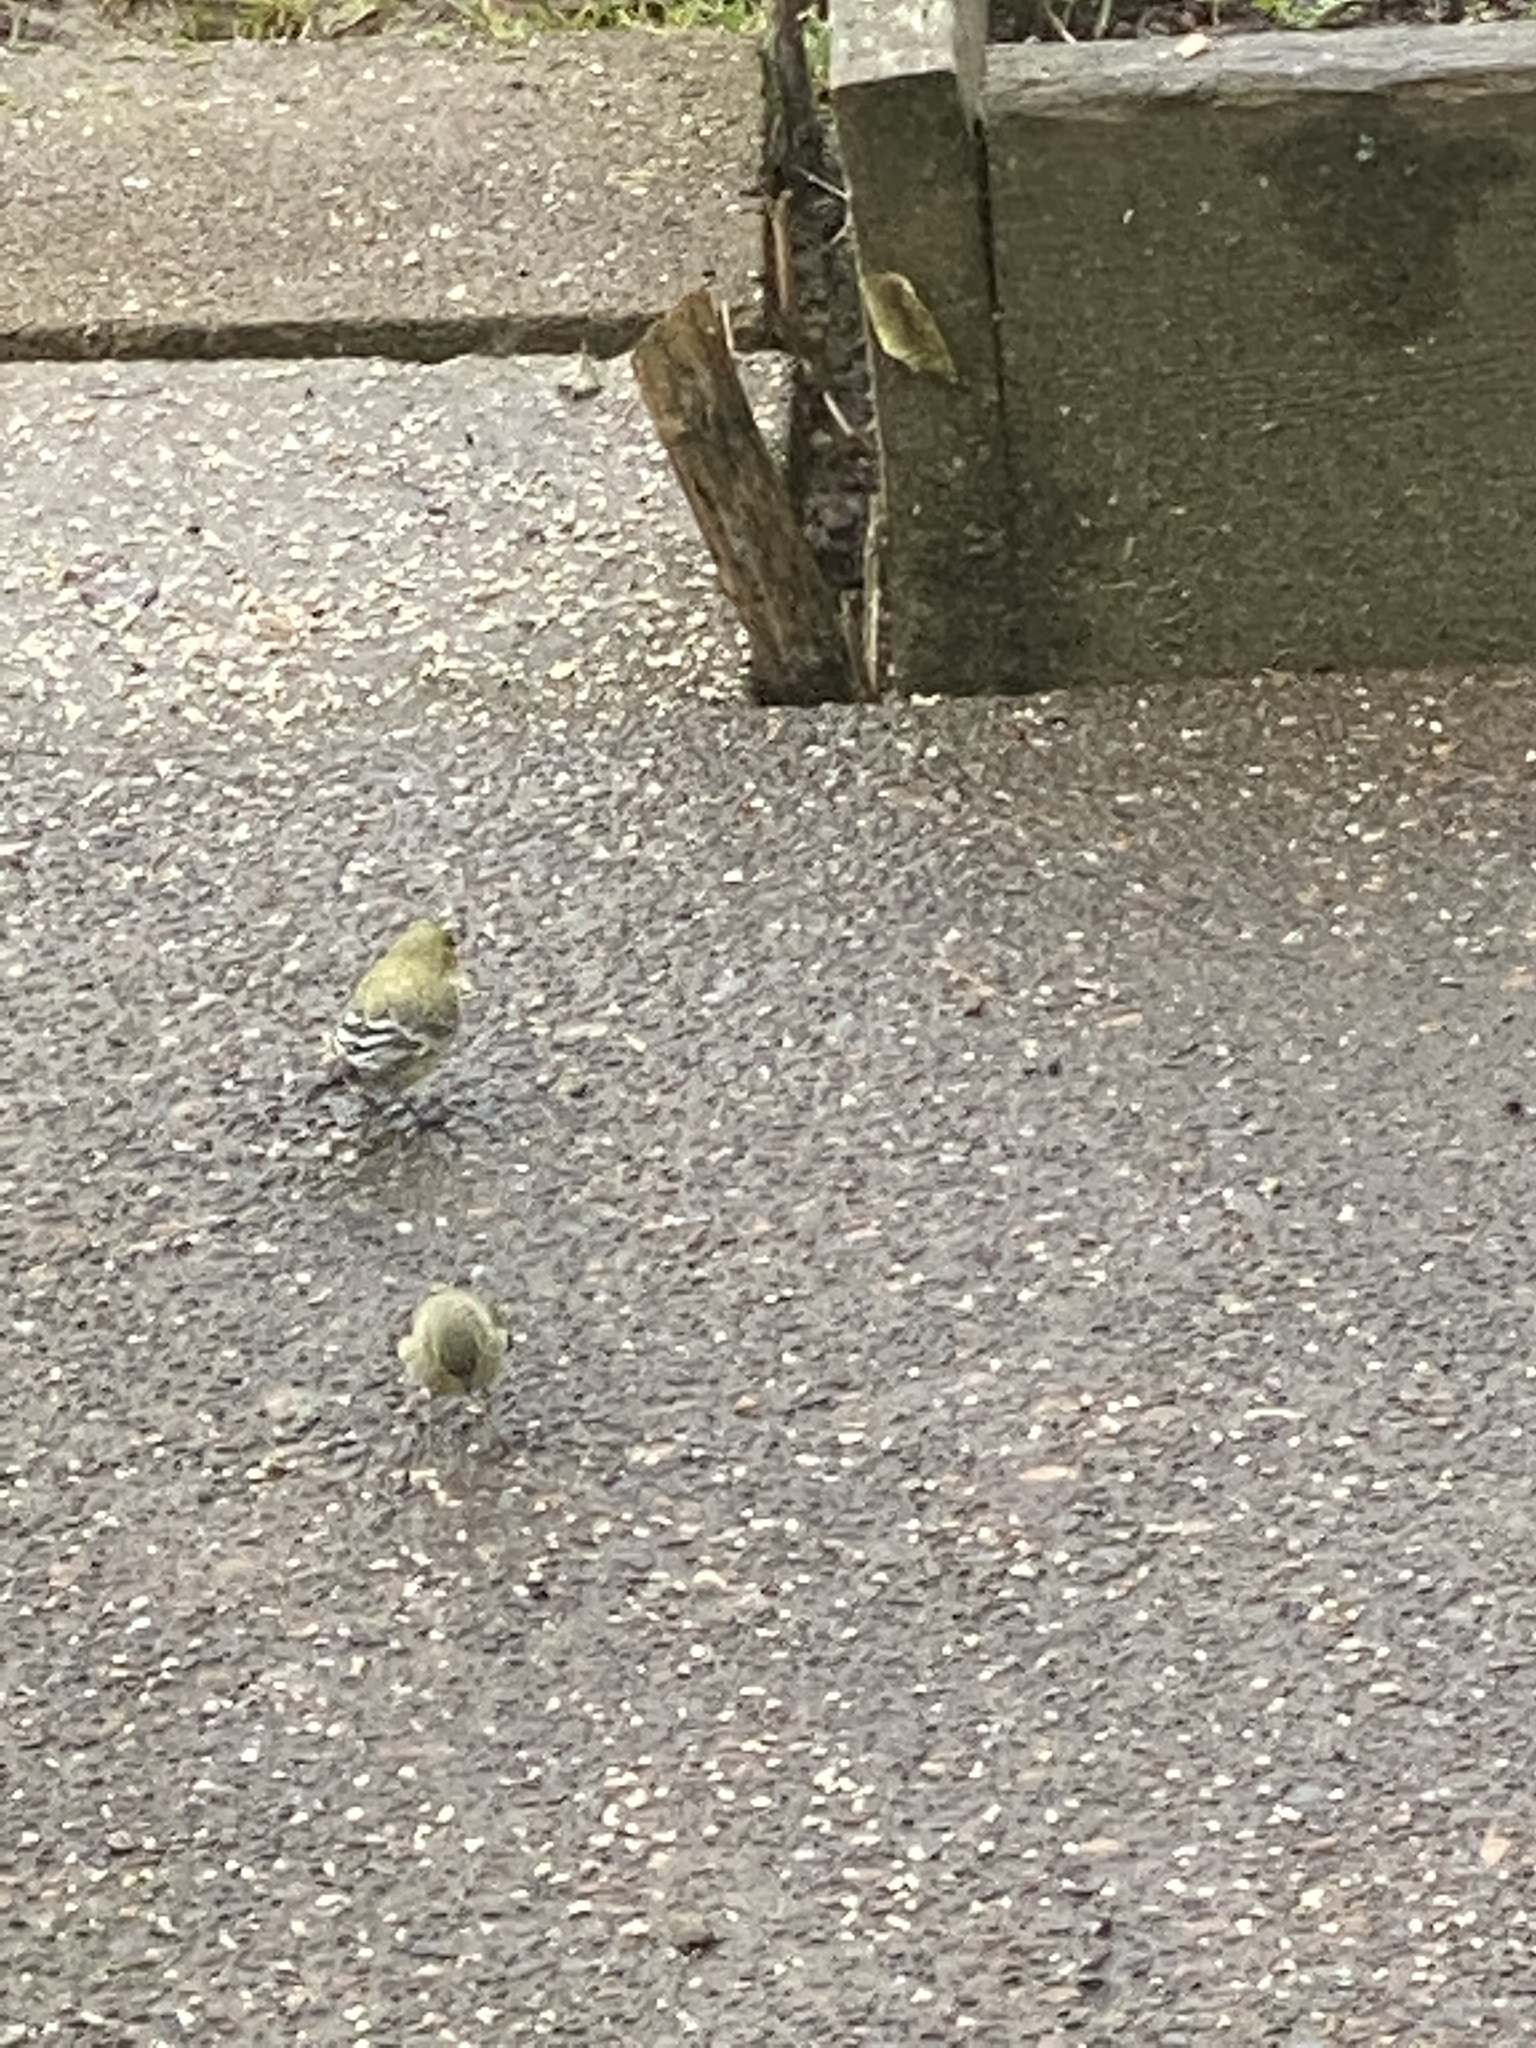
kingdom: Animalia
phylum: Chordata
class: Aves
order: Passeriformes
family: Fringillidae
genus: Spinus
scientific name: Spinus psaltria
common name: Lesser goldfinch
